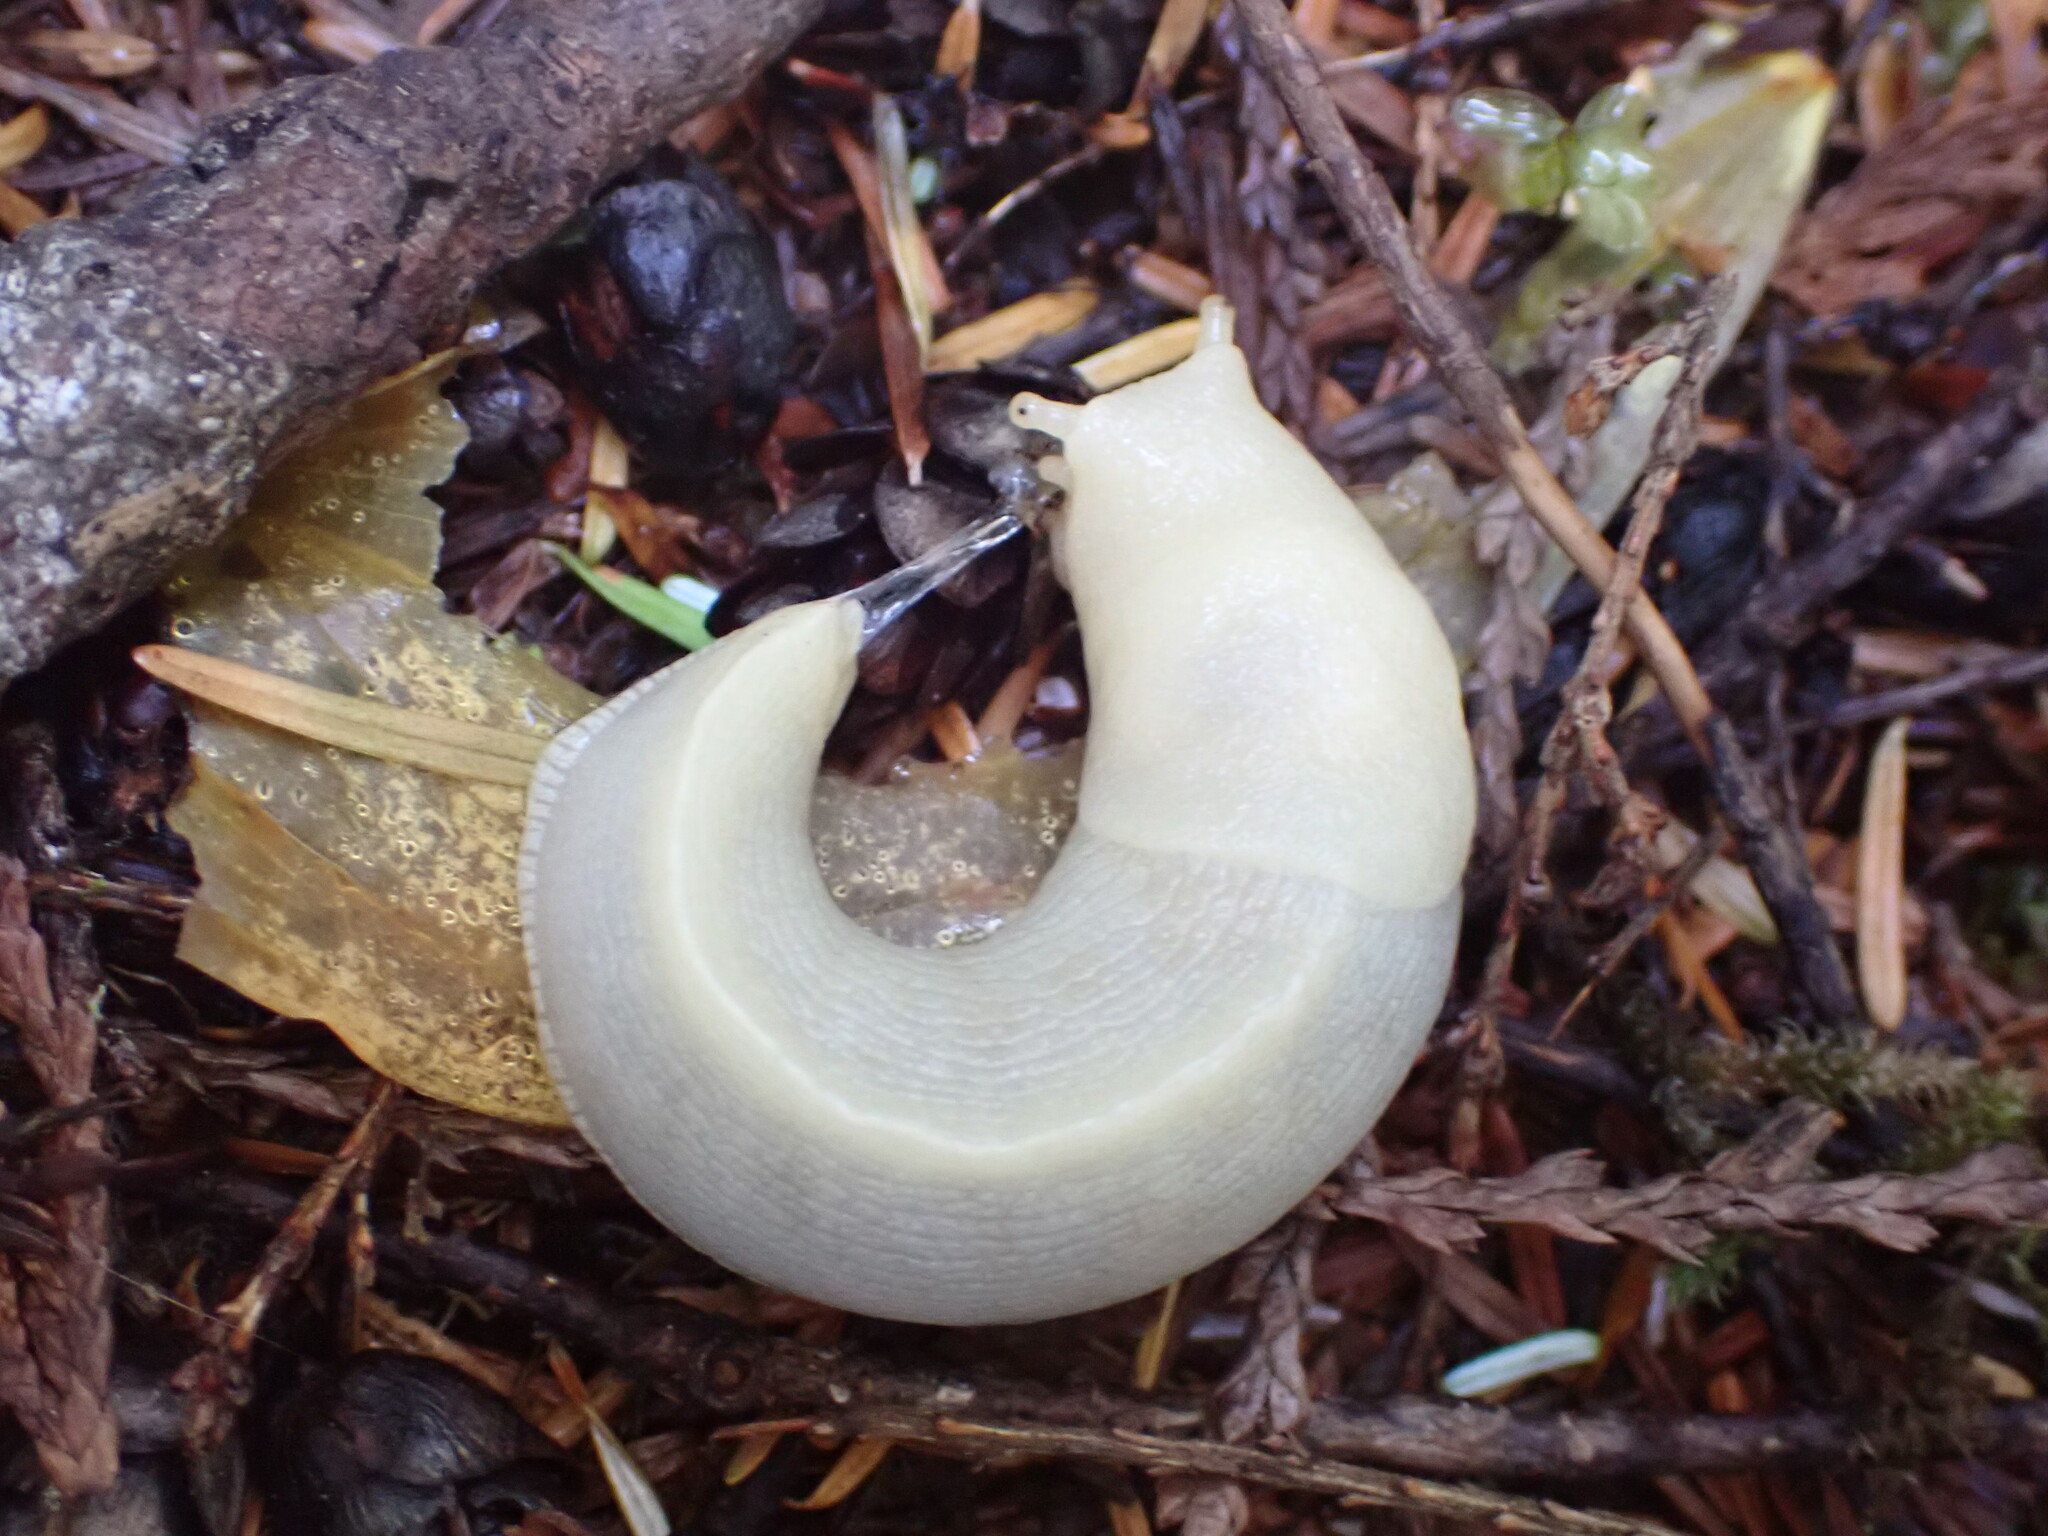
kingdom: Animalia
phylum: Mollusca
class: Gastropoda
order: Stylommatophora
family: Ariolimacidae
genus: Ariolimax
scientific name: Ariolimax columbianus
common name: Pacific banana slug
